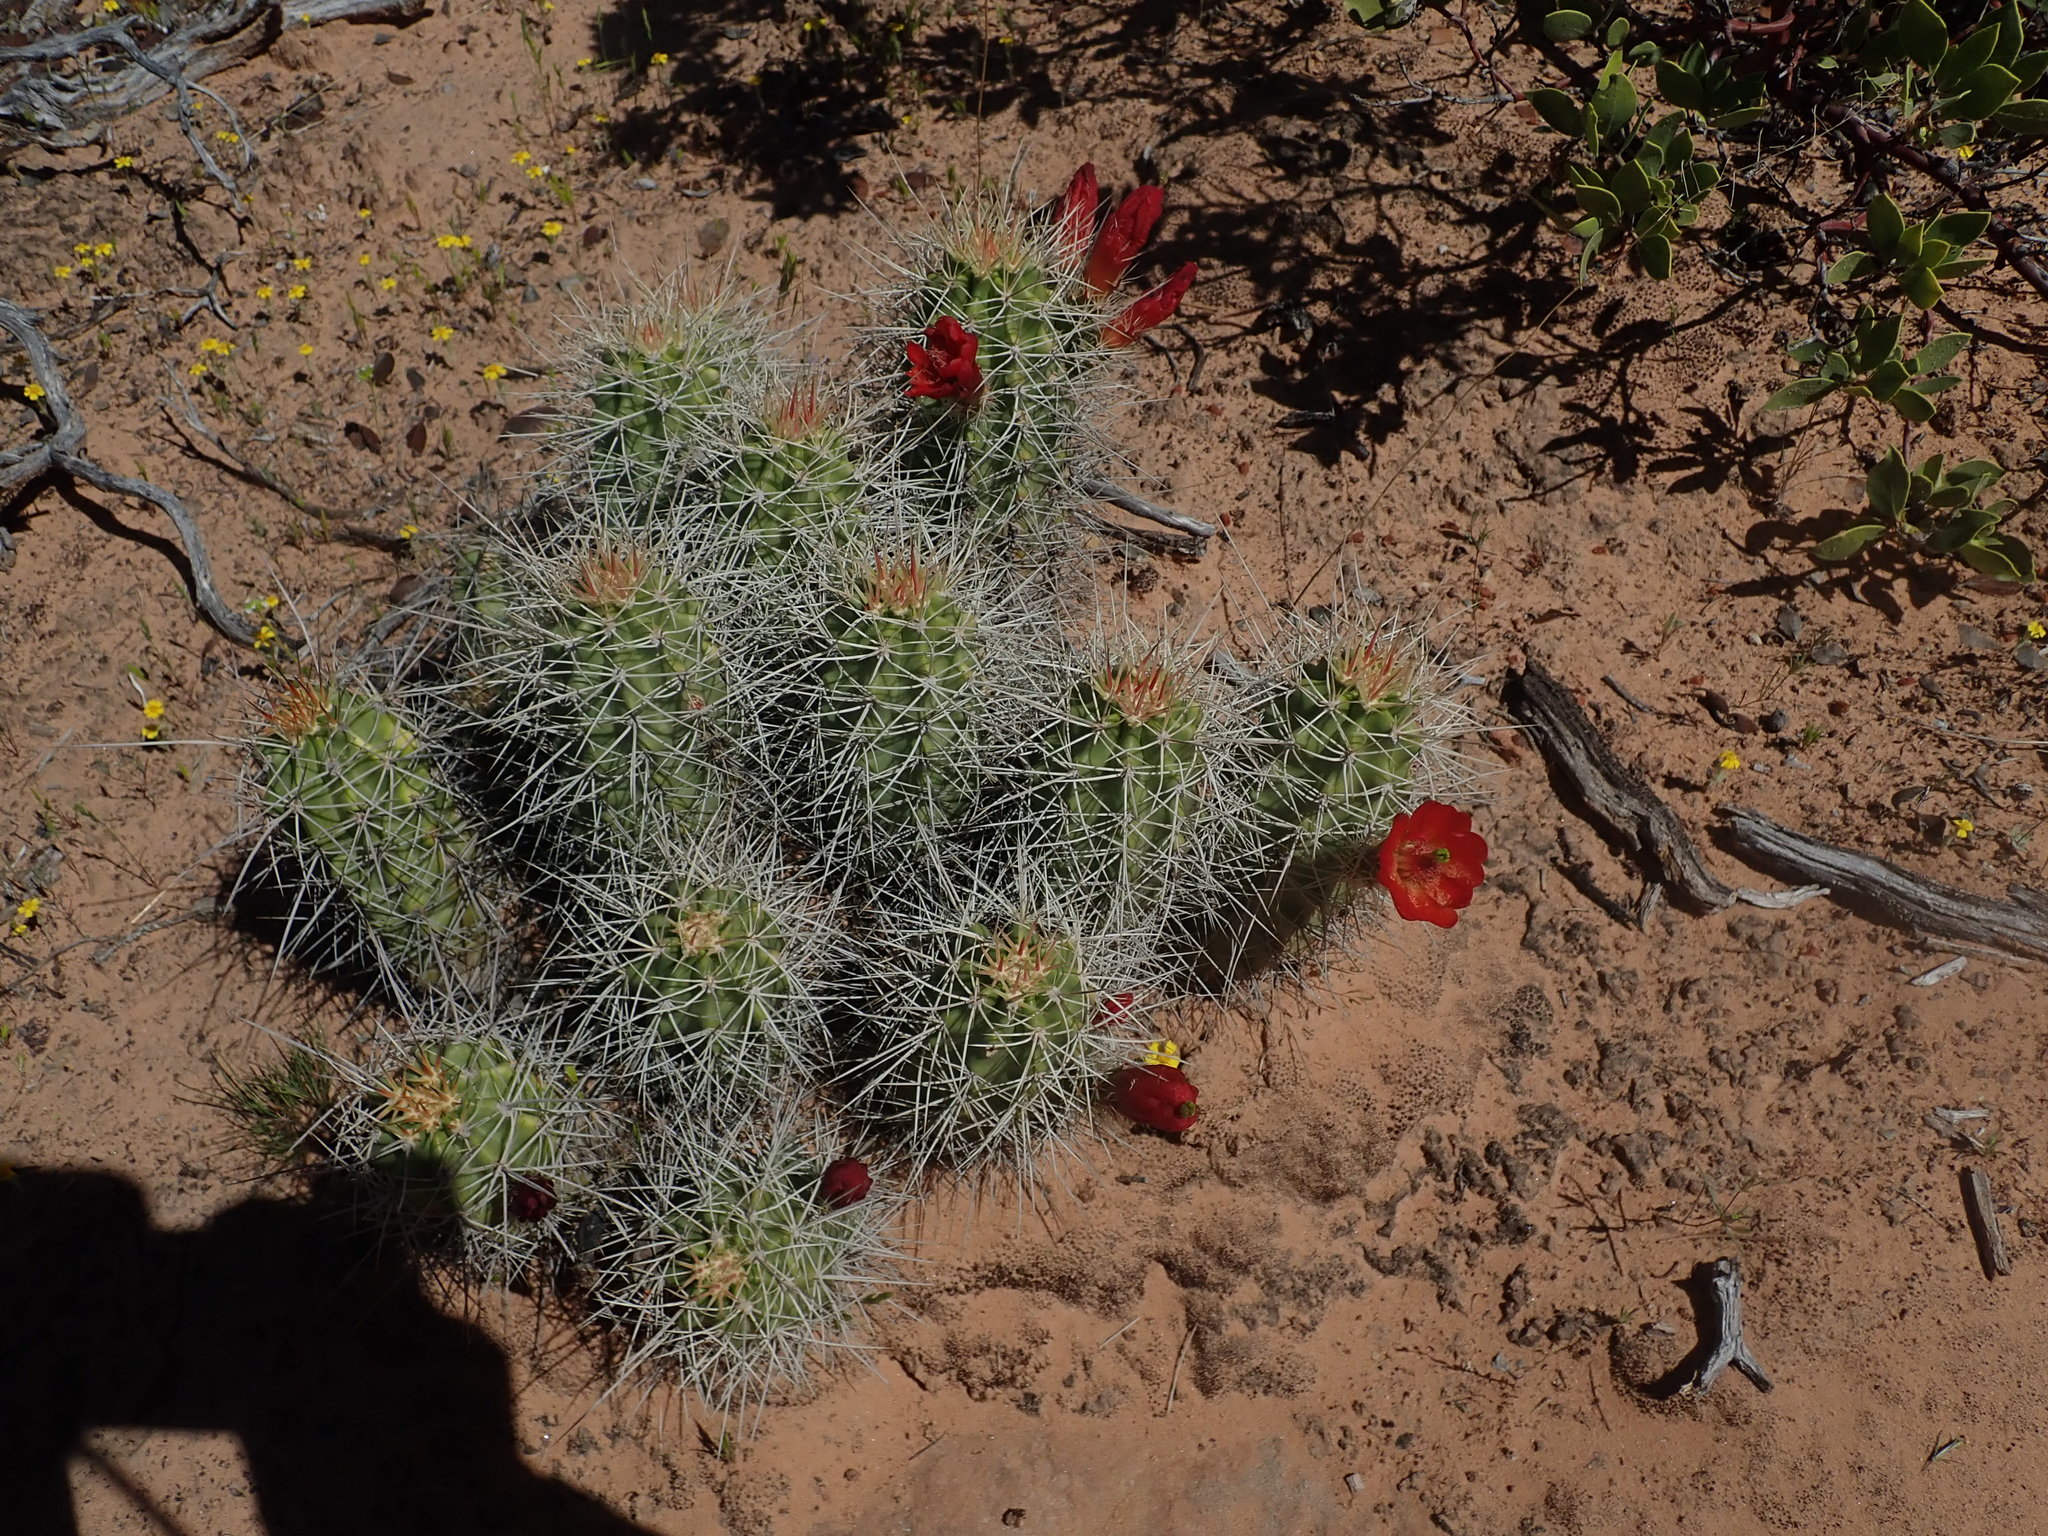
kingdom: Plantae
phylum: Tracheophyta
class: Magnoliopsida
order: Caryophyllales
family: Cactaceae
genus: Echinocereus
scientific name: Echinocereus triglochidiatus
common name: Claretcup hedgehog
